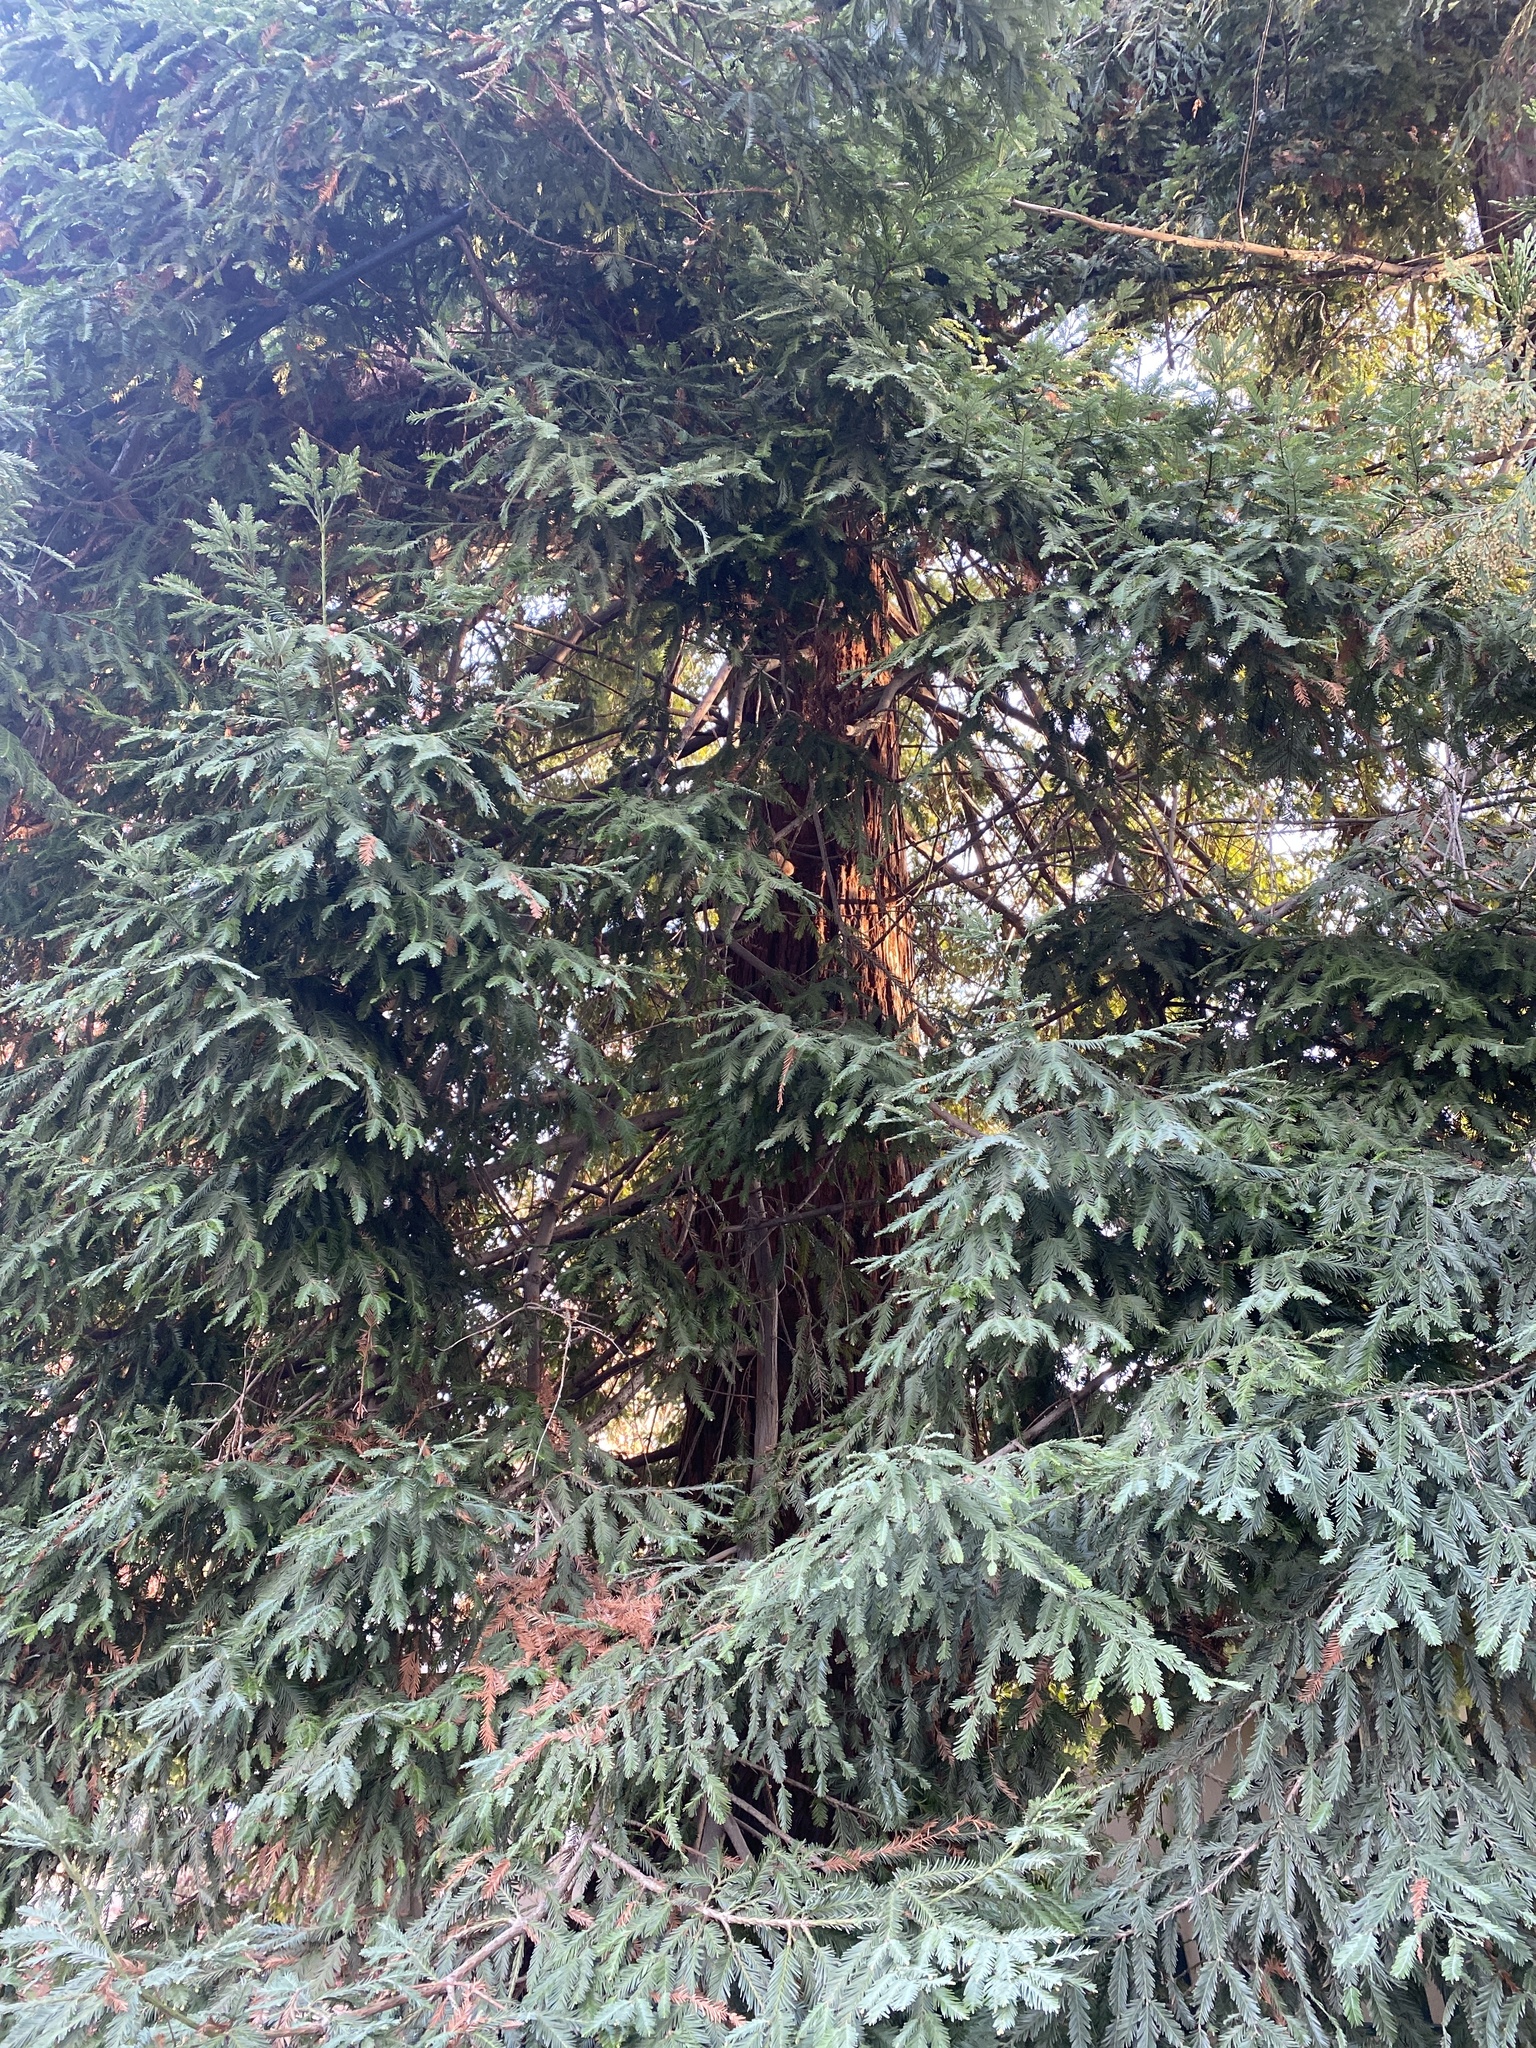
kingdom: Plantae
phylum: Tracheophyta
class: Pinopsida
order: Pinales
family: Cupressaceae
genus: Sequoia
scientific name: Sequoia sempervirens
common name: Coast redwood
